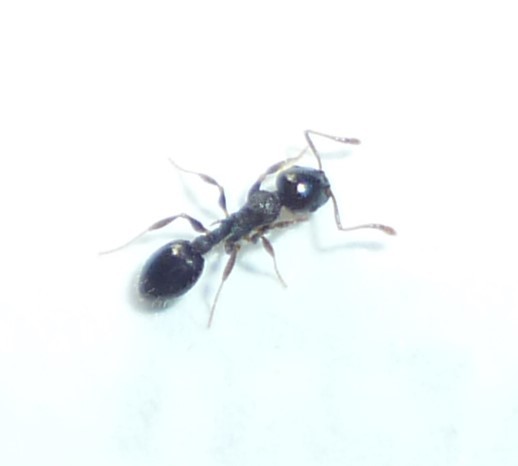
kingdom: Animalia
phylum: Arthropoda
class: Insecta
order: Hymenoptera
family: Formicidae
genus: Temnothorax
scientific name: Temnothorax longispinosus
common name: Long-spined acorn ant
